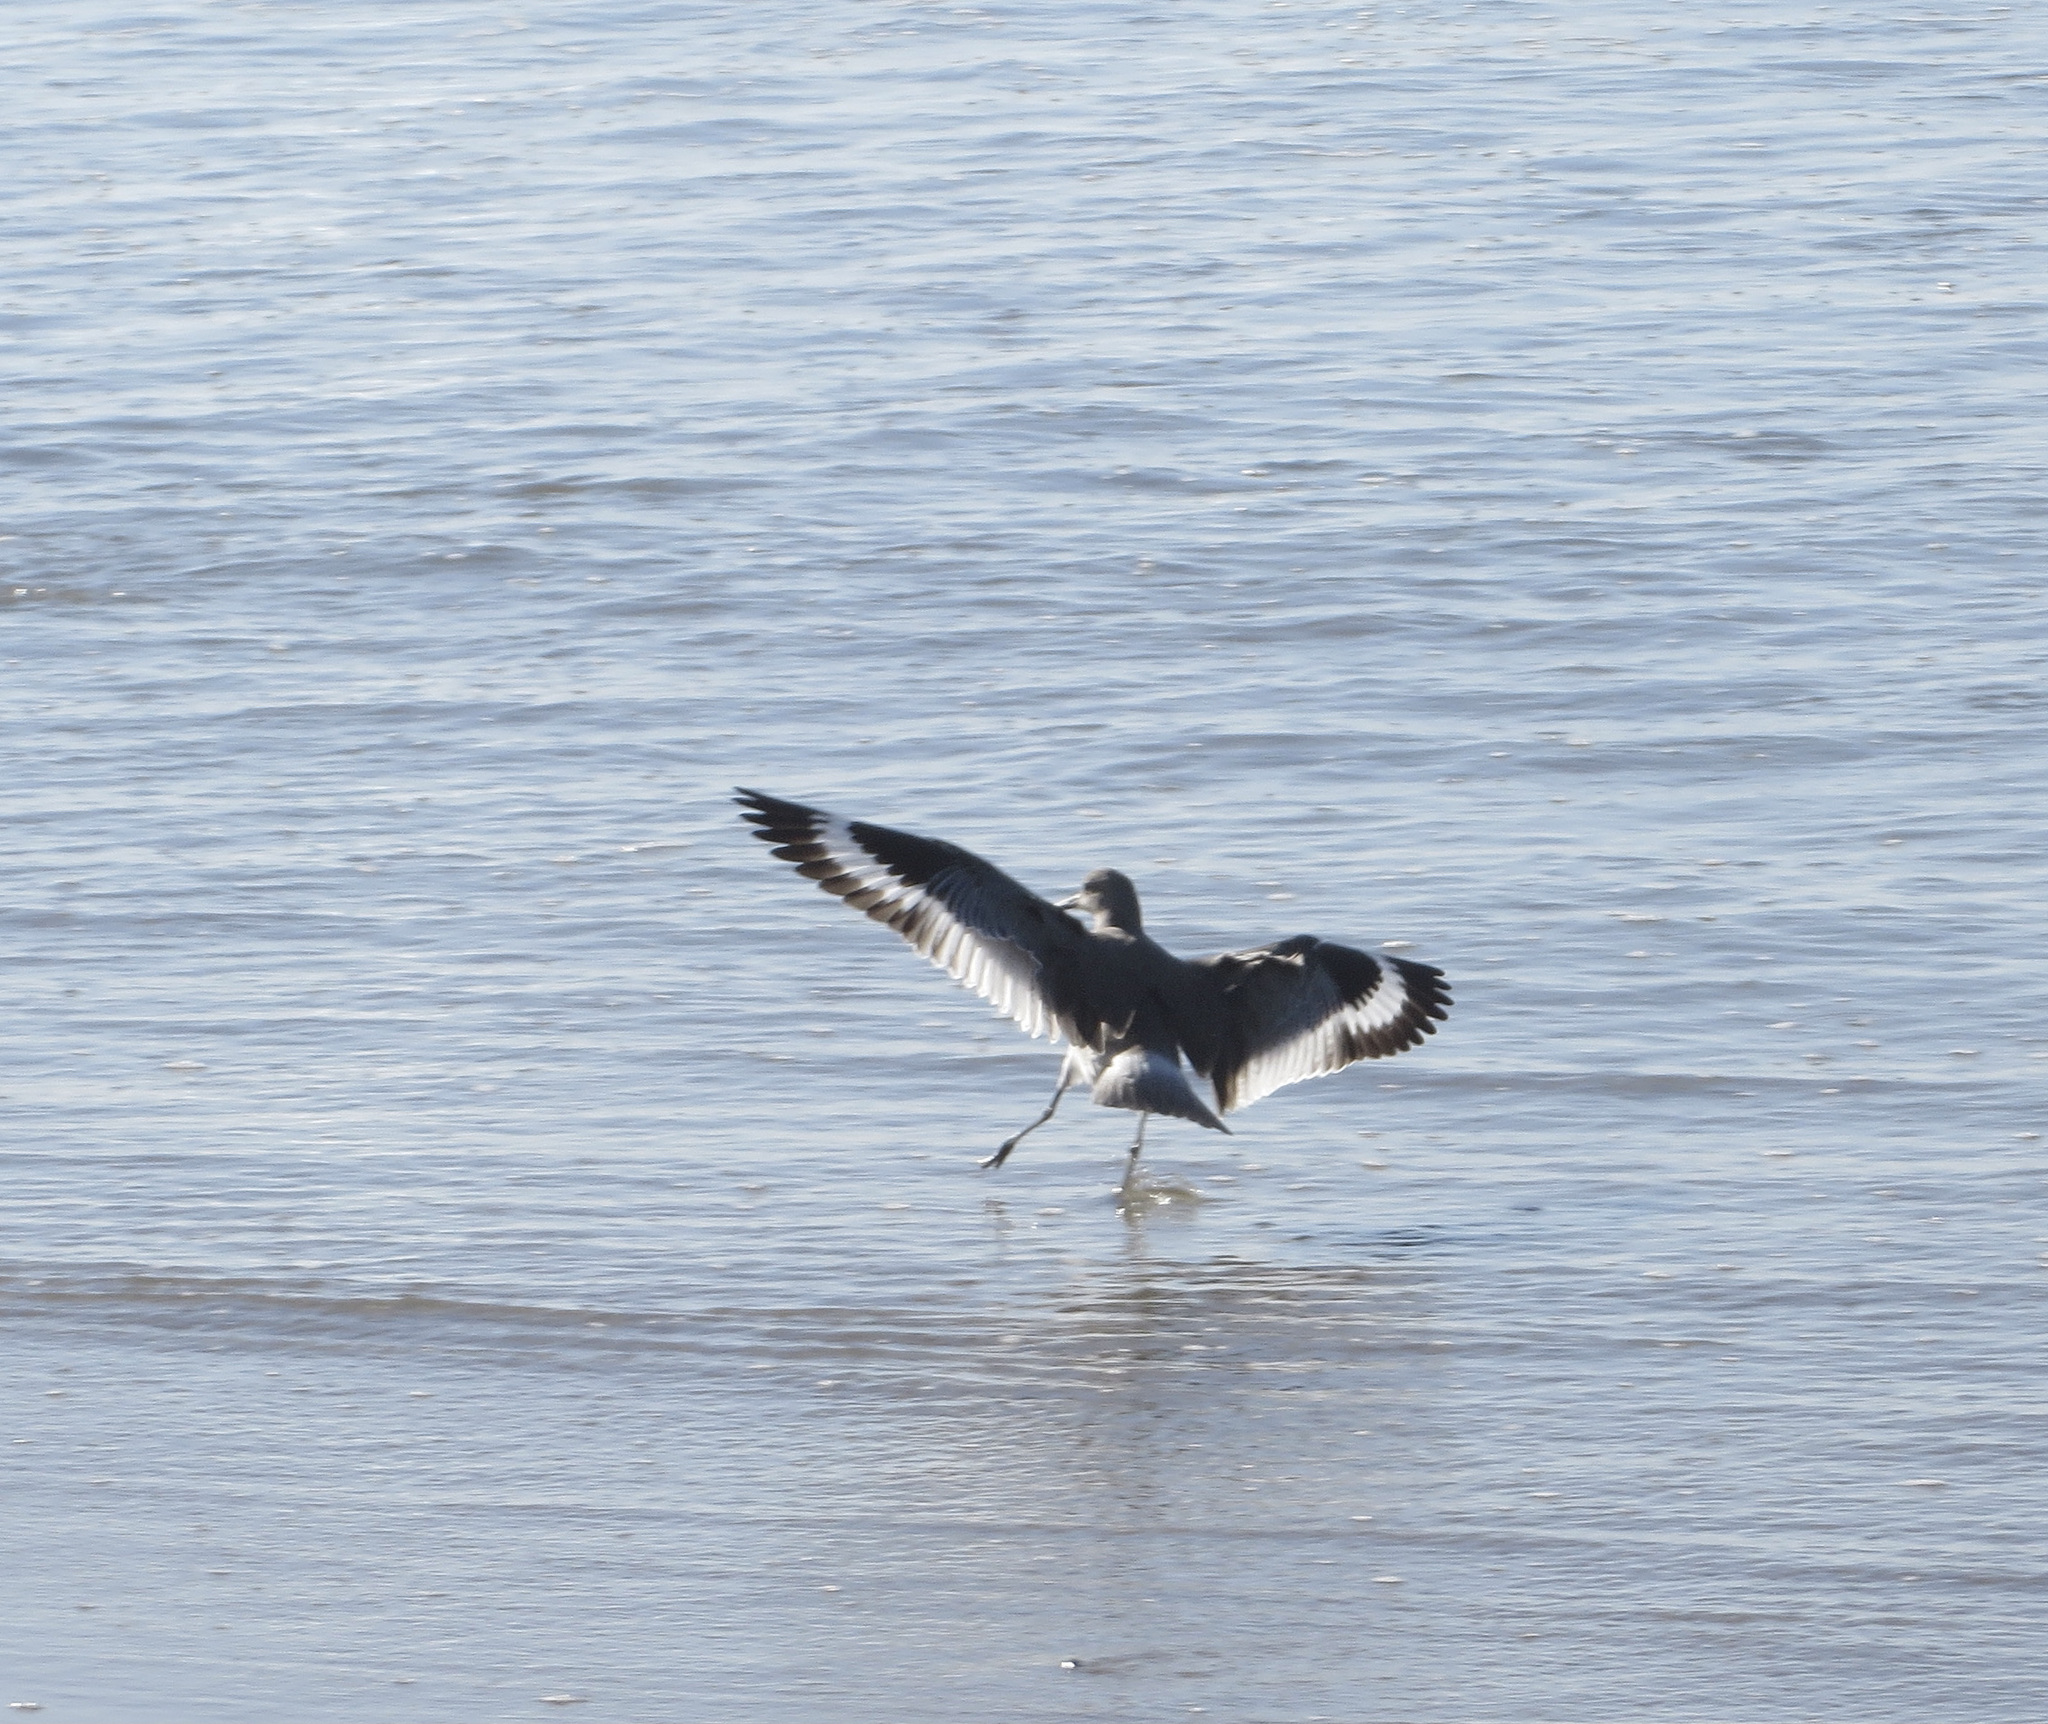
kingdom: Animalia
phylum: Chordata
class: Aves
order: Charadriiformes
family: Scolopacidae
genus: Tringa
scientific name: Tringa semipalmata
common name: Willet
